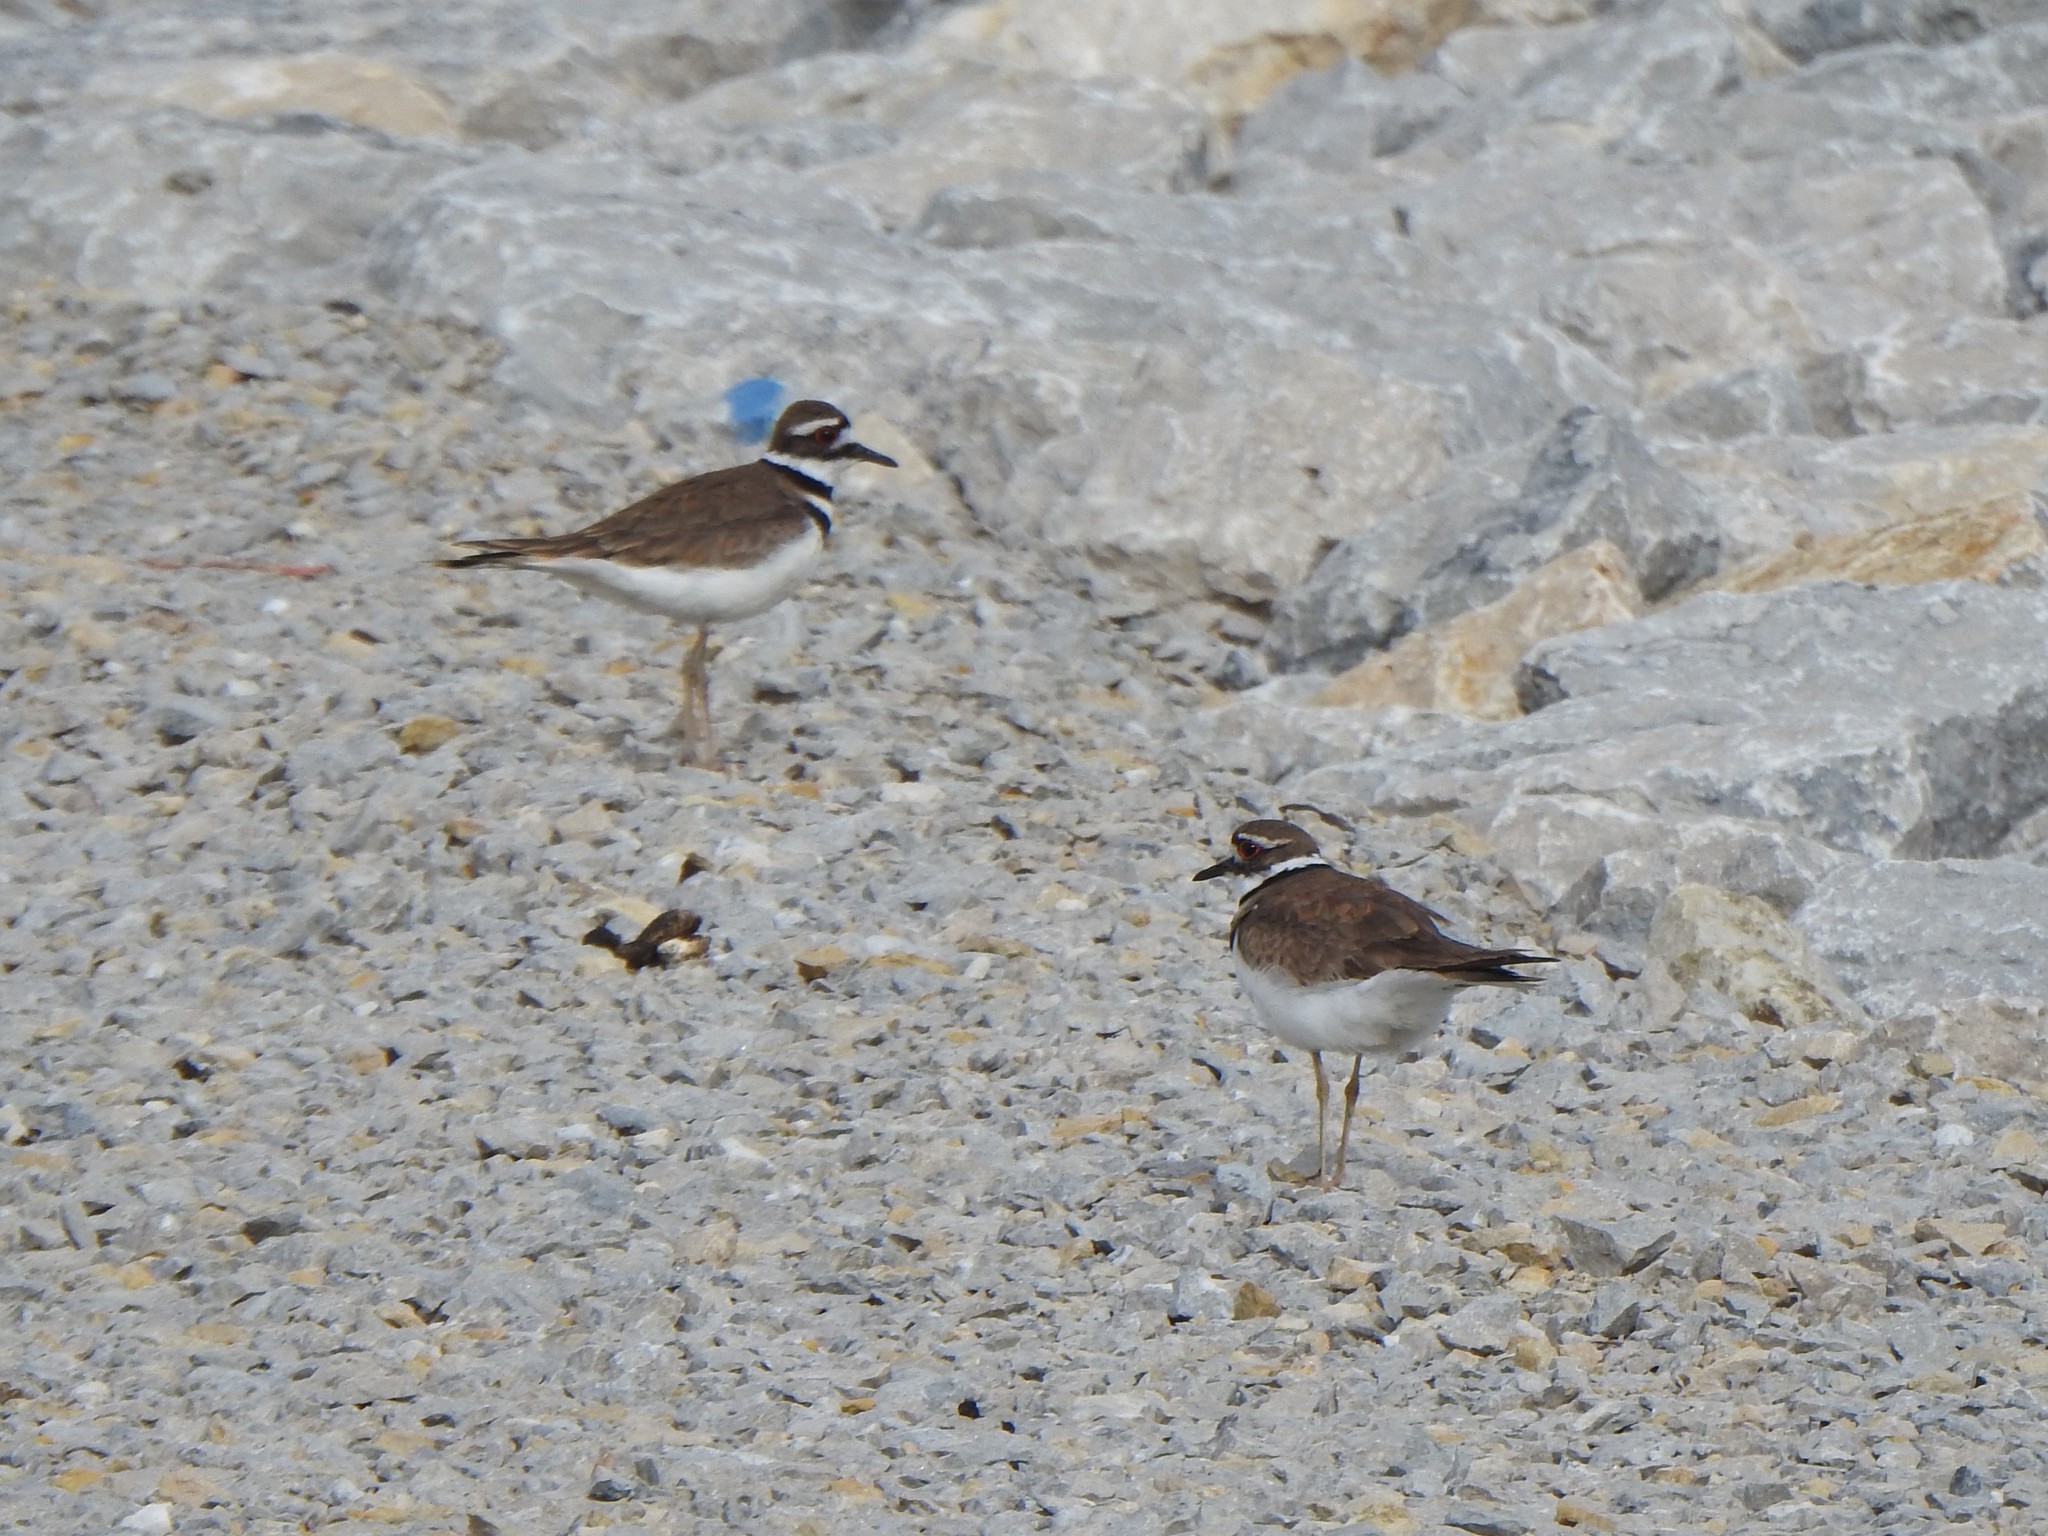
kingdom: Animalia
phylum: Chordata
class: Aves
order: Charadriiformes
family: Charadriidae
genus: Charadrius
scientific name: Charadrius vociferus
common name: Killdeer
